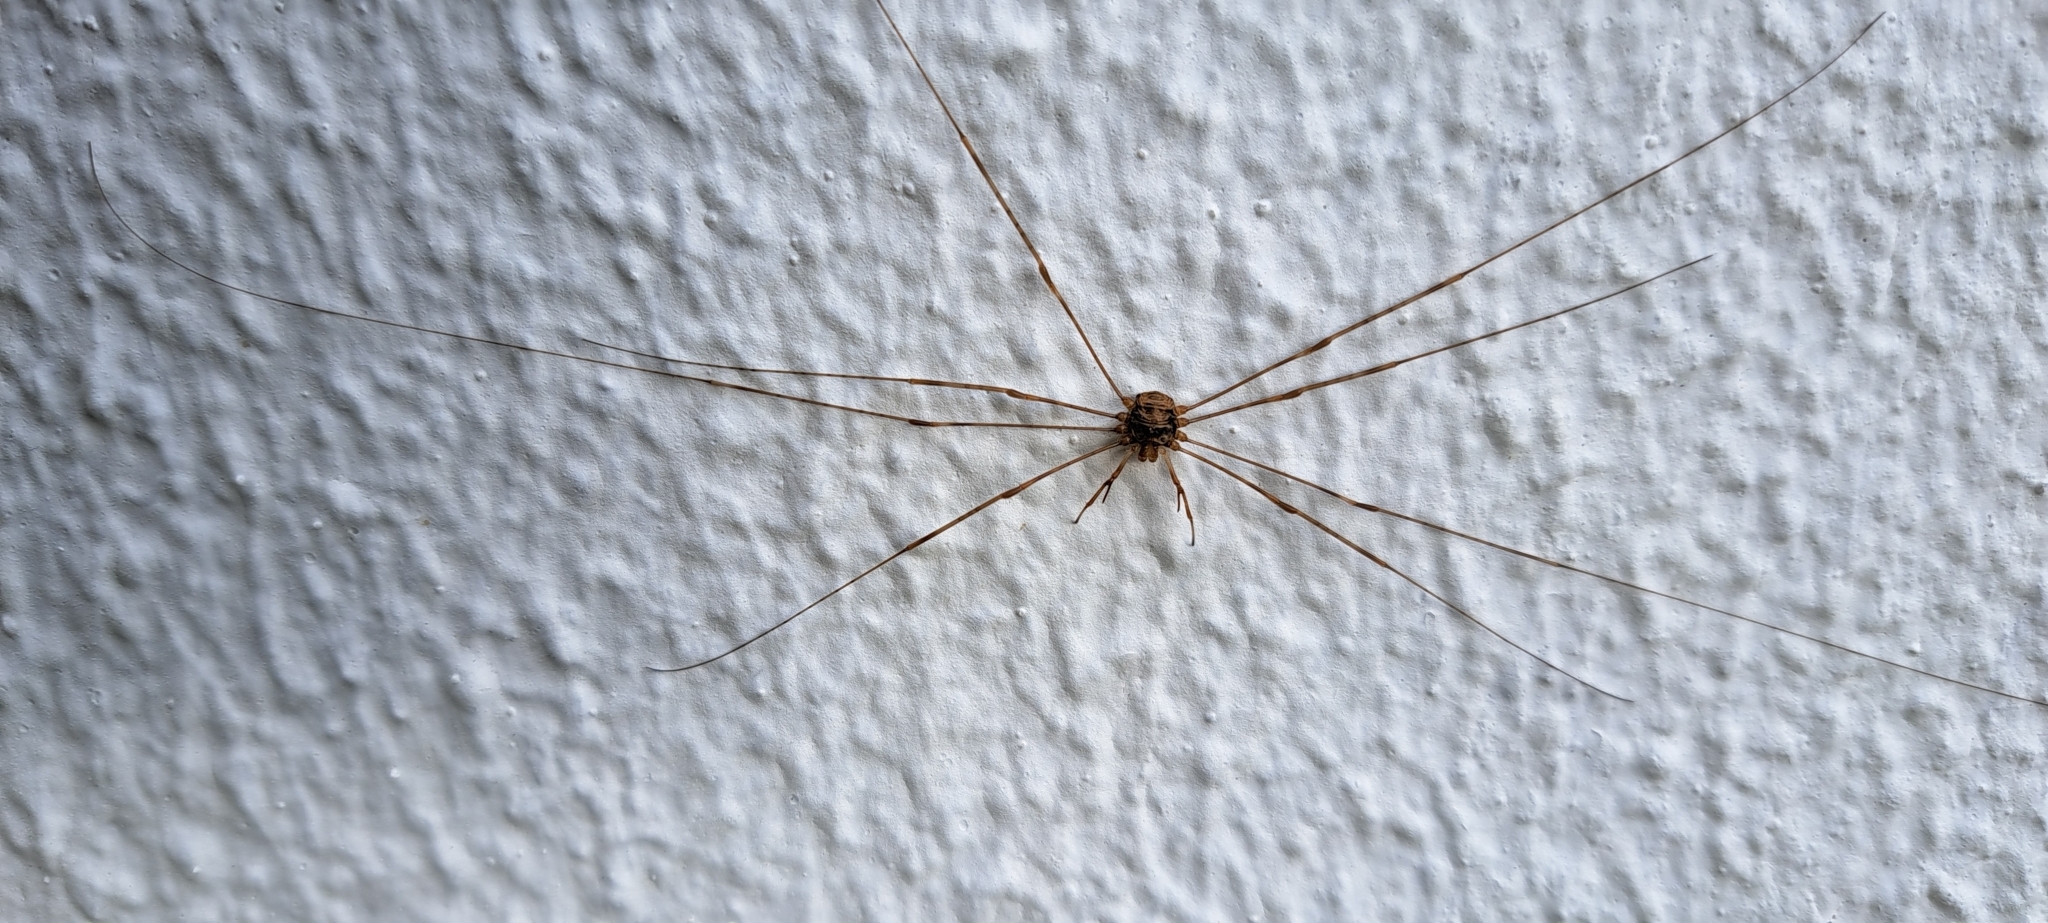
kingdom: Animalia
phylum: Arthropoda
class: Arachnida
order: Opiliones
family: Phalangiidae
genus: Dicranopalpus
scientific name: Dicranopalpus ramosus
